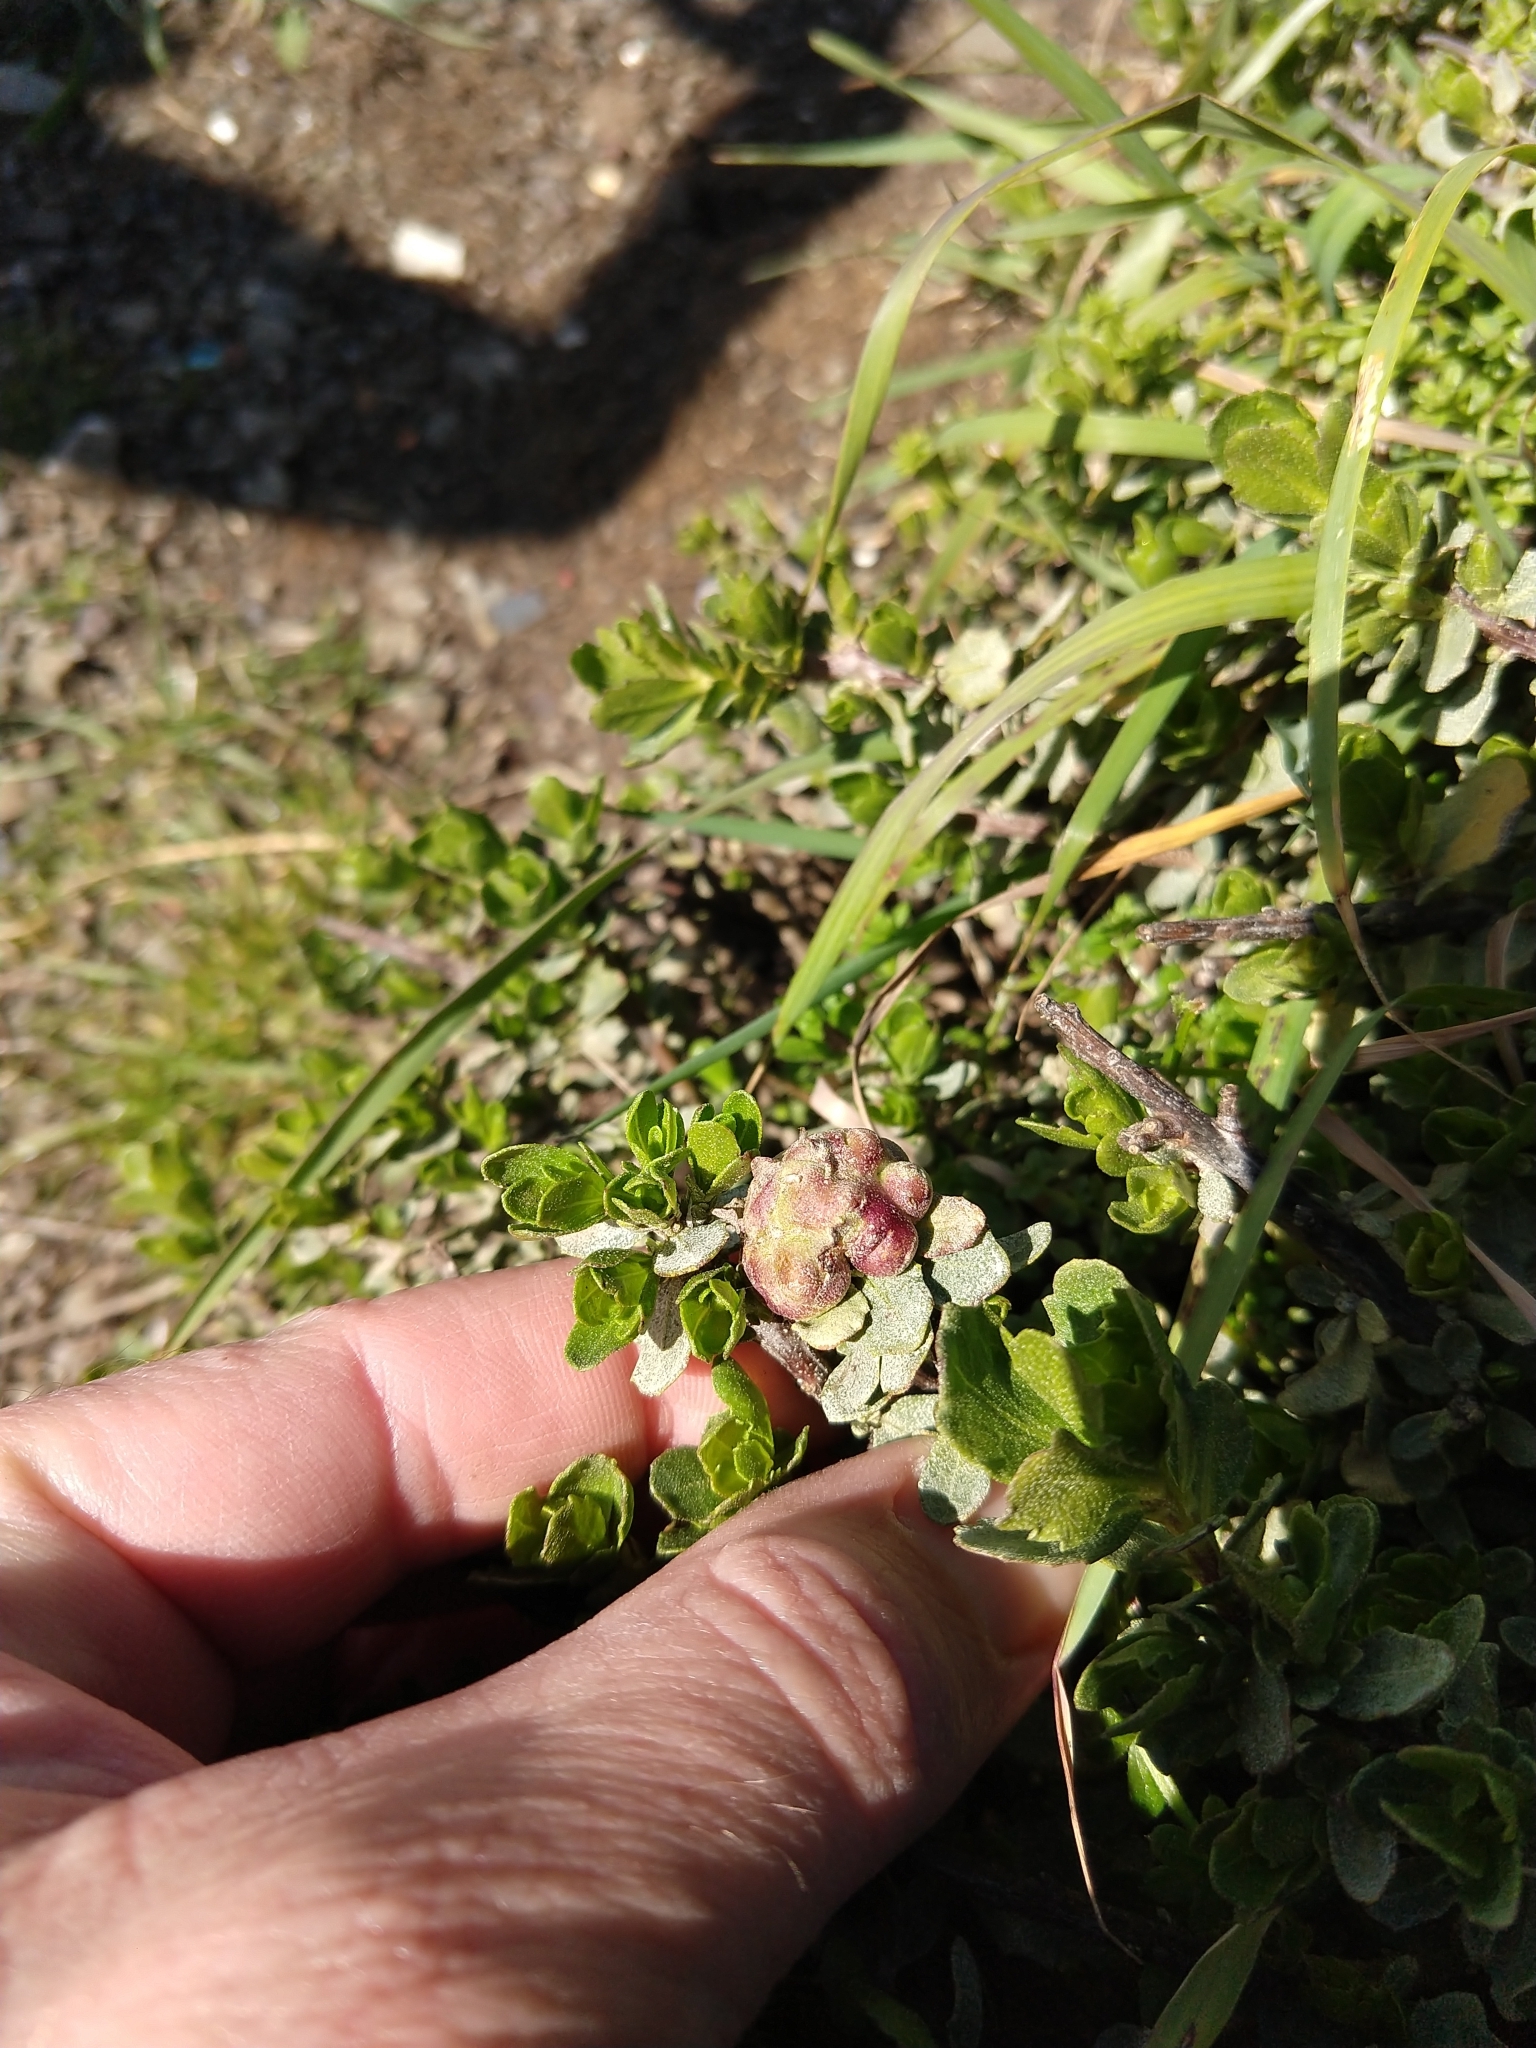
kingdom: Animalia
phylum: Arthropoda
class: Insecta
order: Diptera
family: Cecidomyiidae
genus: Rhopalomyia
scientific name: Rhopalomyia californica
